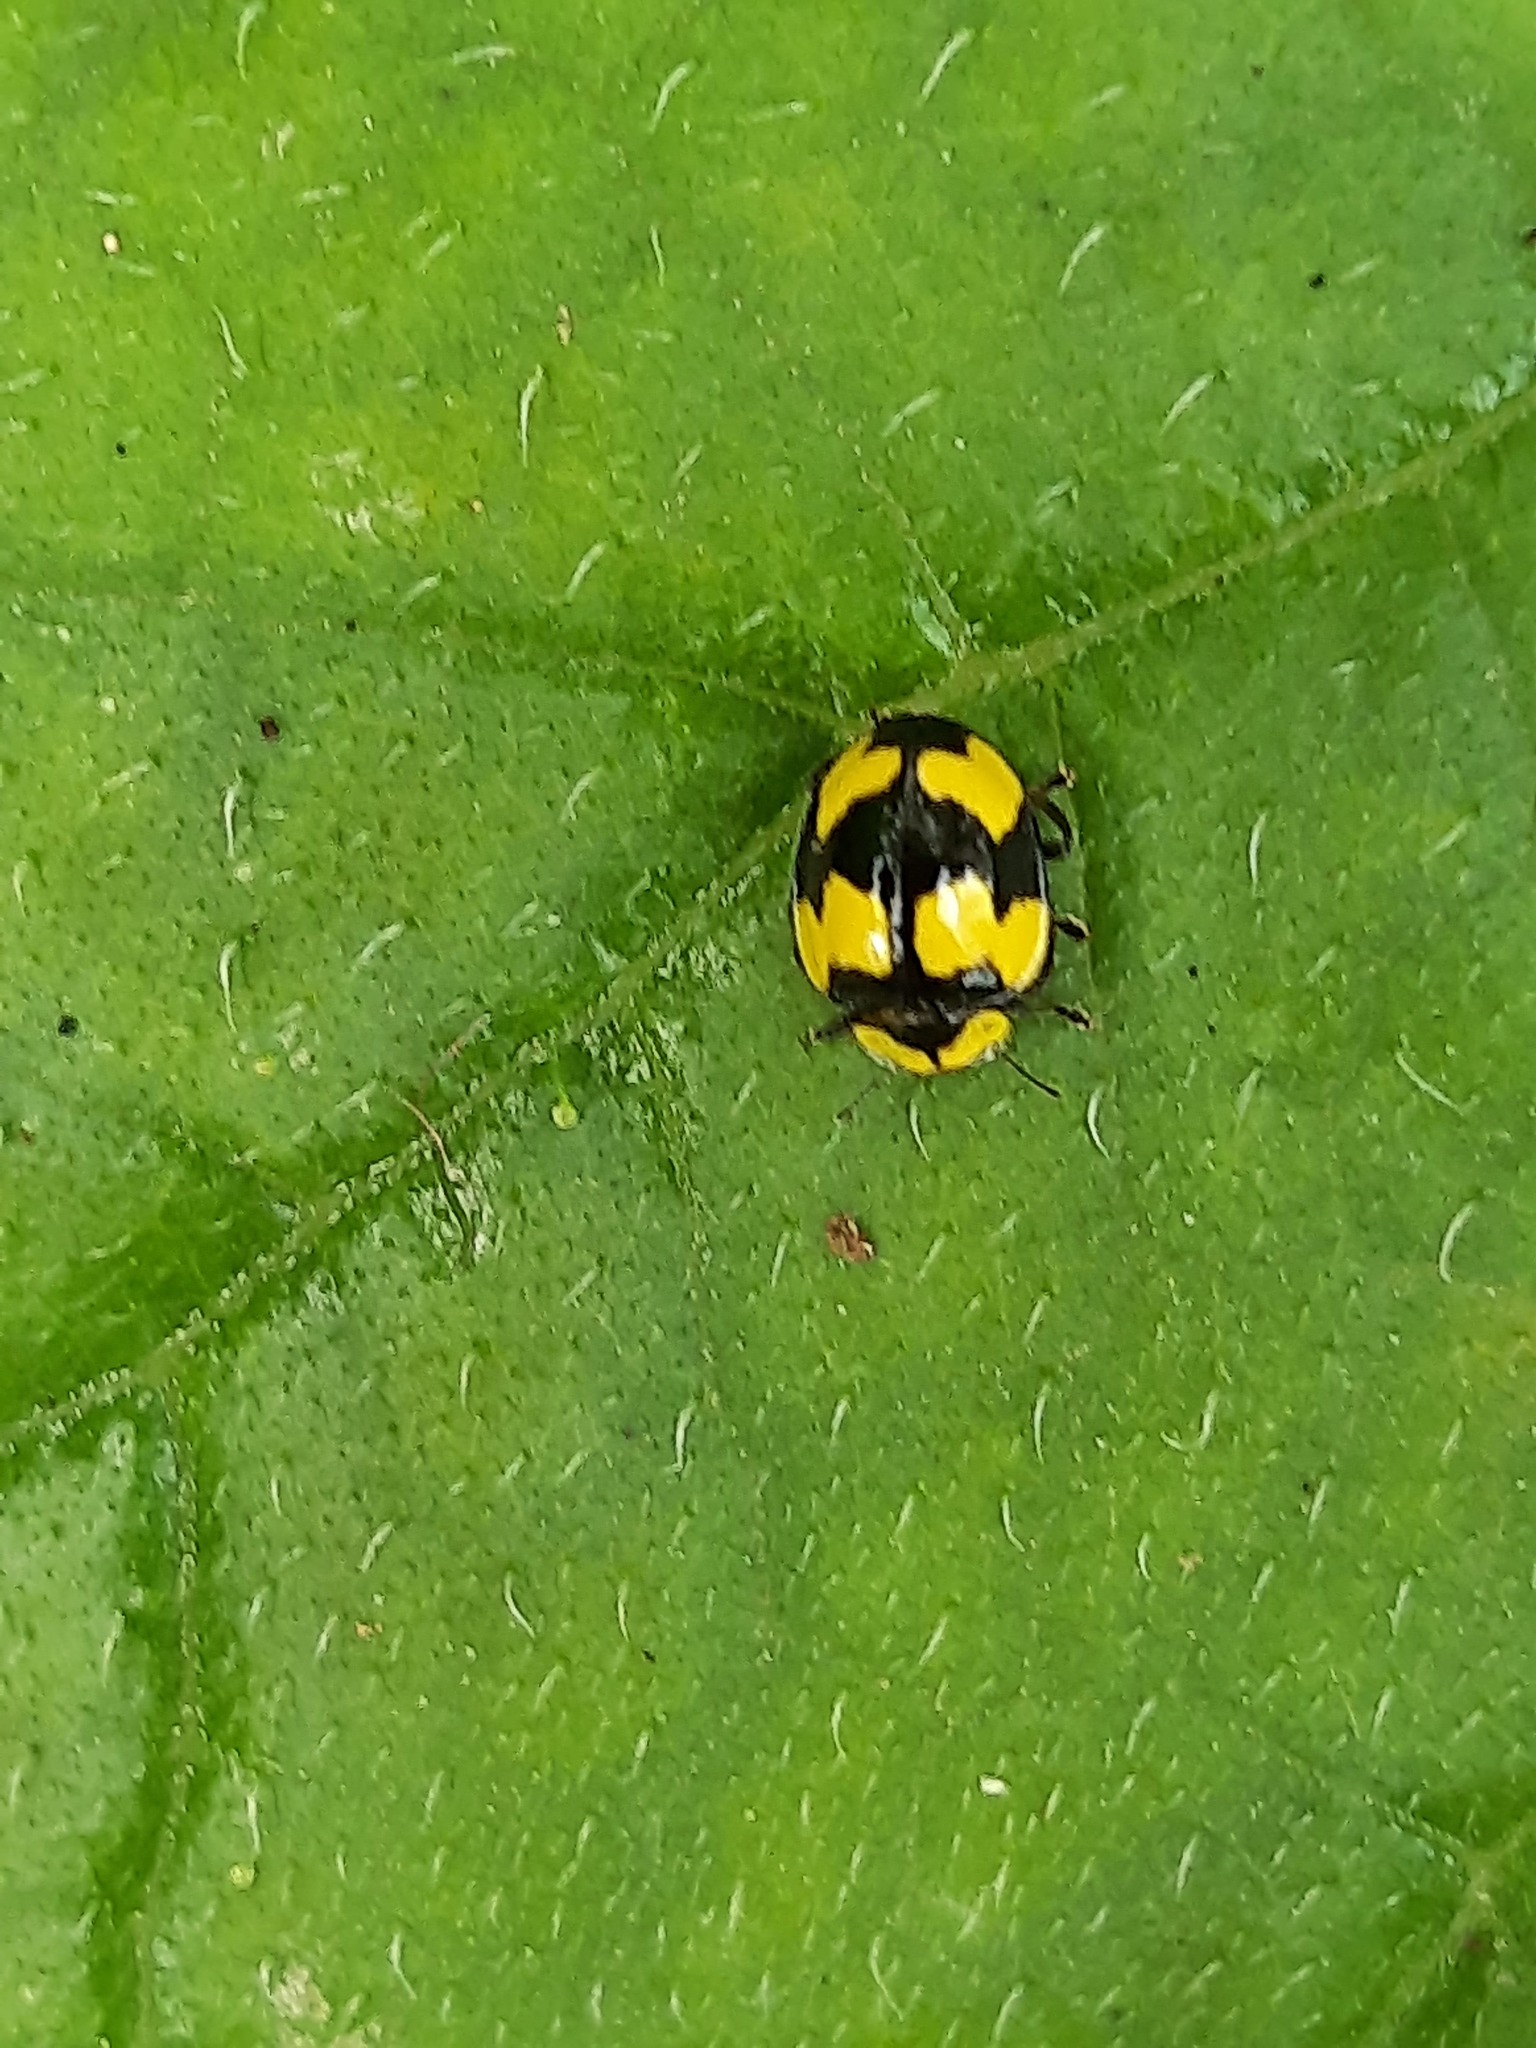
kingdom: Animalia
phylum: Arthropoda
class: Insecta
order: Coleoptera
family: Coccinellidae
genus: Illeis
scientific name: Illeis galbula
